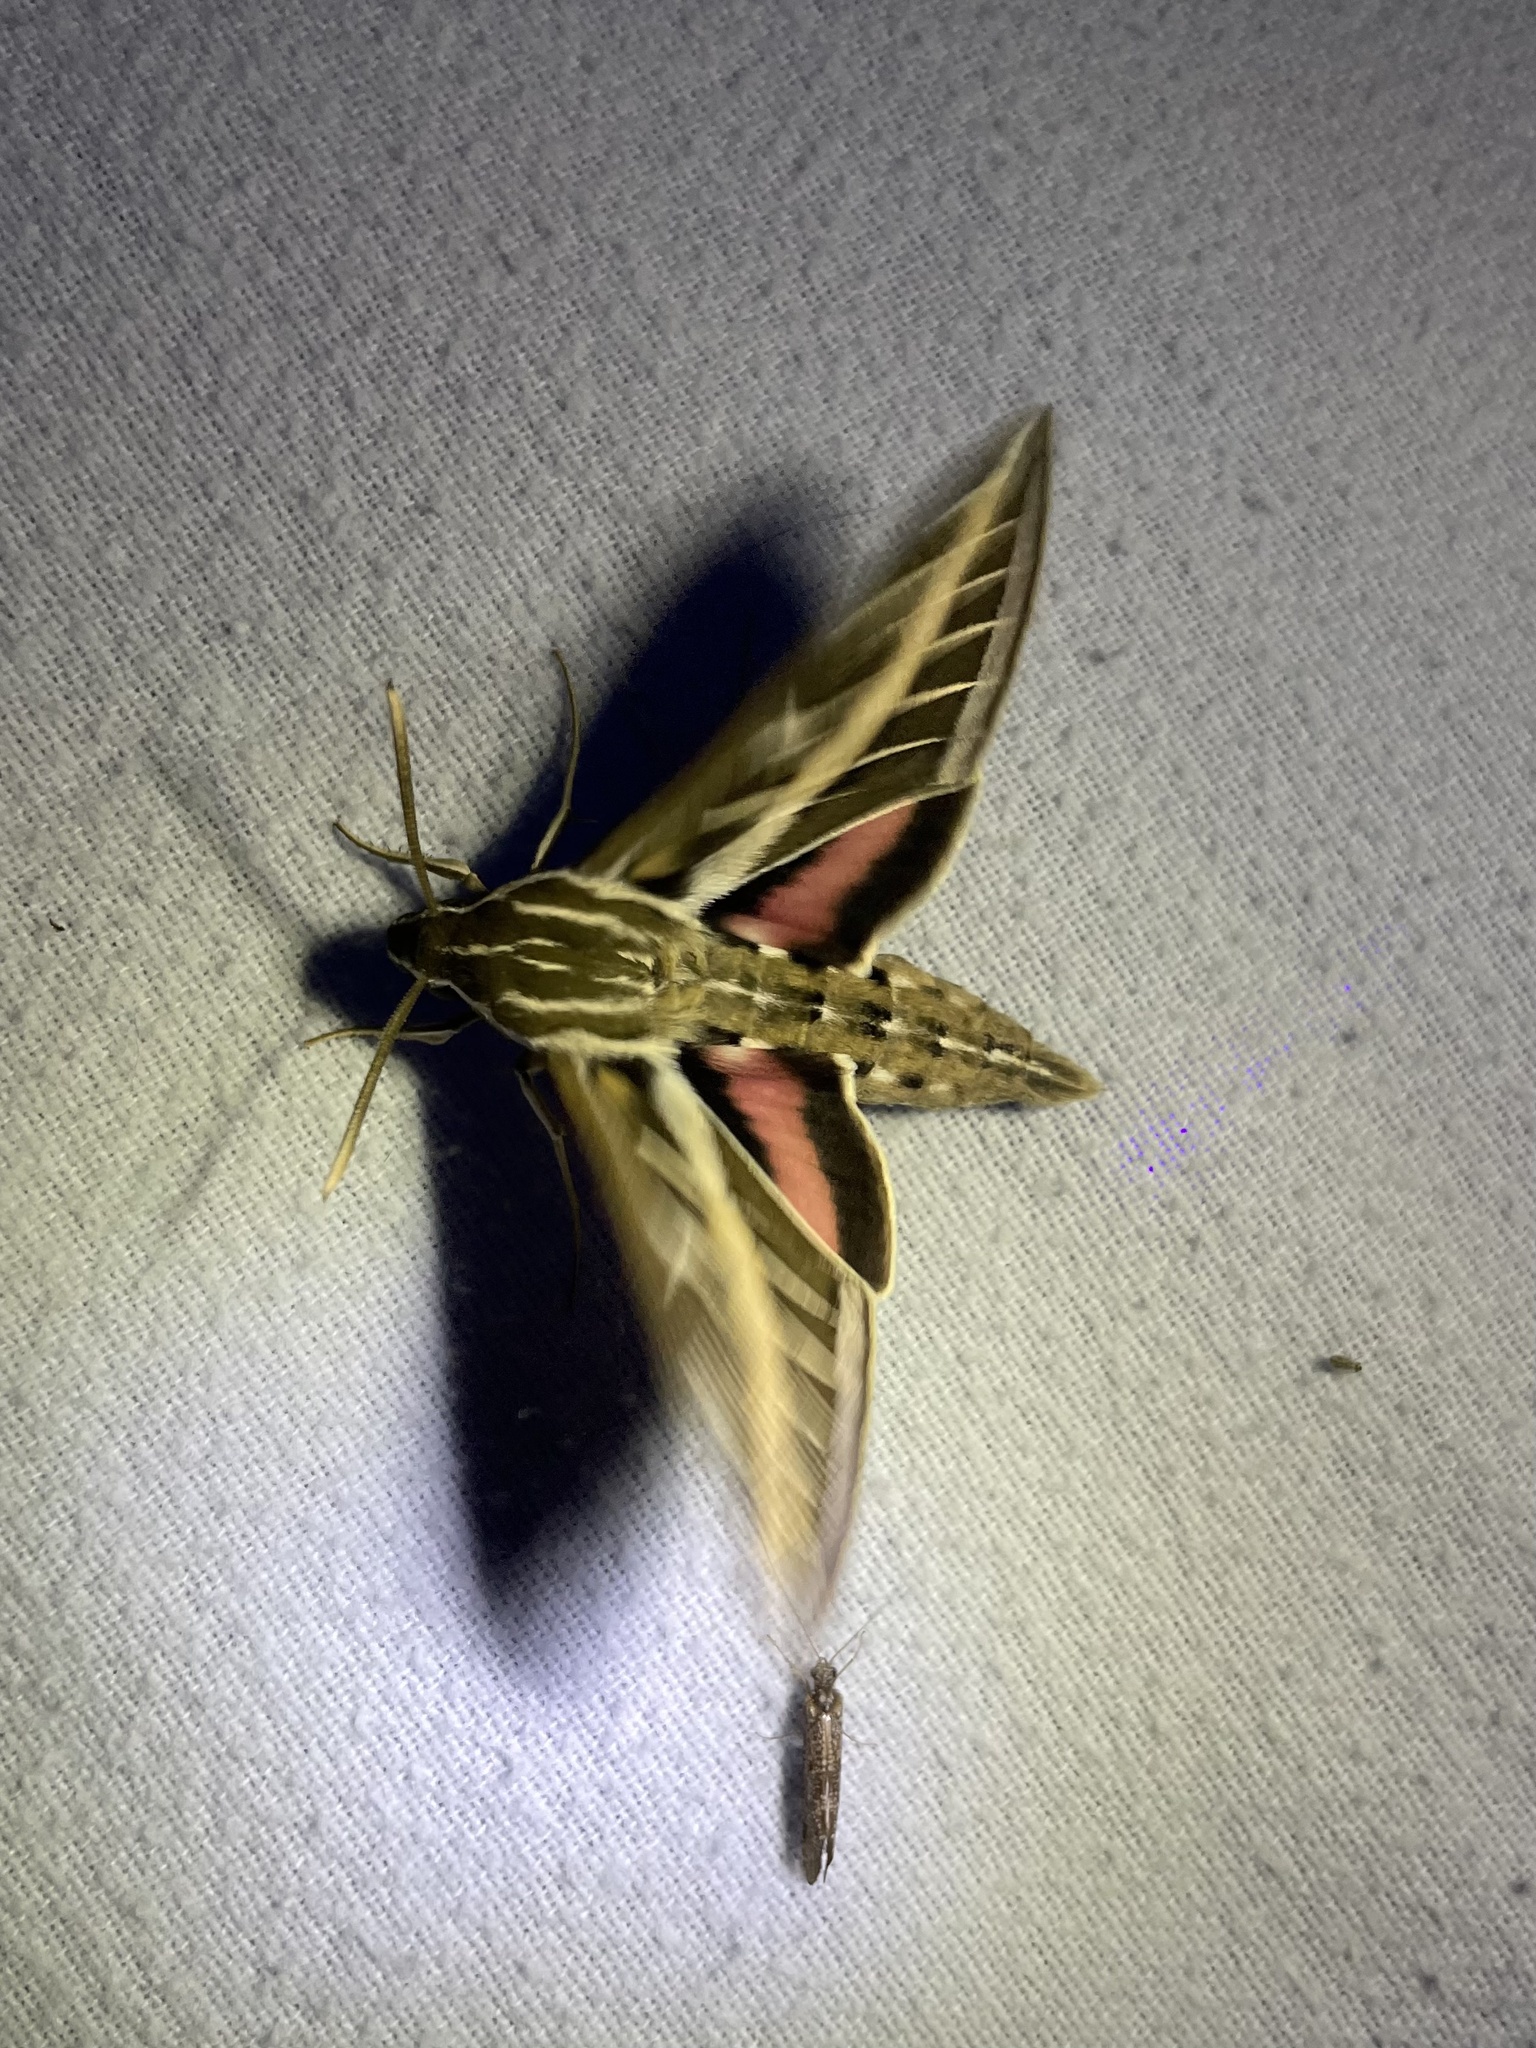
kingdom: Animalia
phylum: Arthropoda
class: Insecta
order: Lepidoptera
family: Sphingidae
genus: Hyles
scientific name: Hyles lineata
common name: White-lined sphinx
